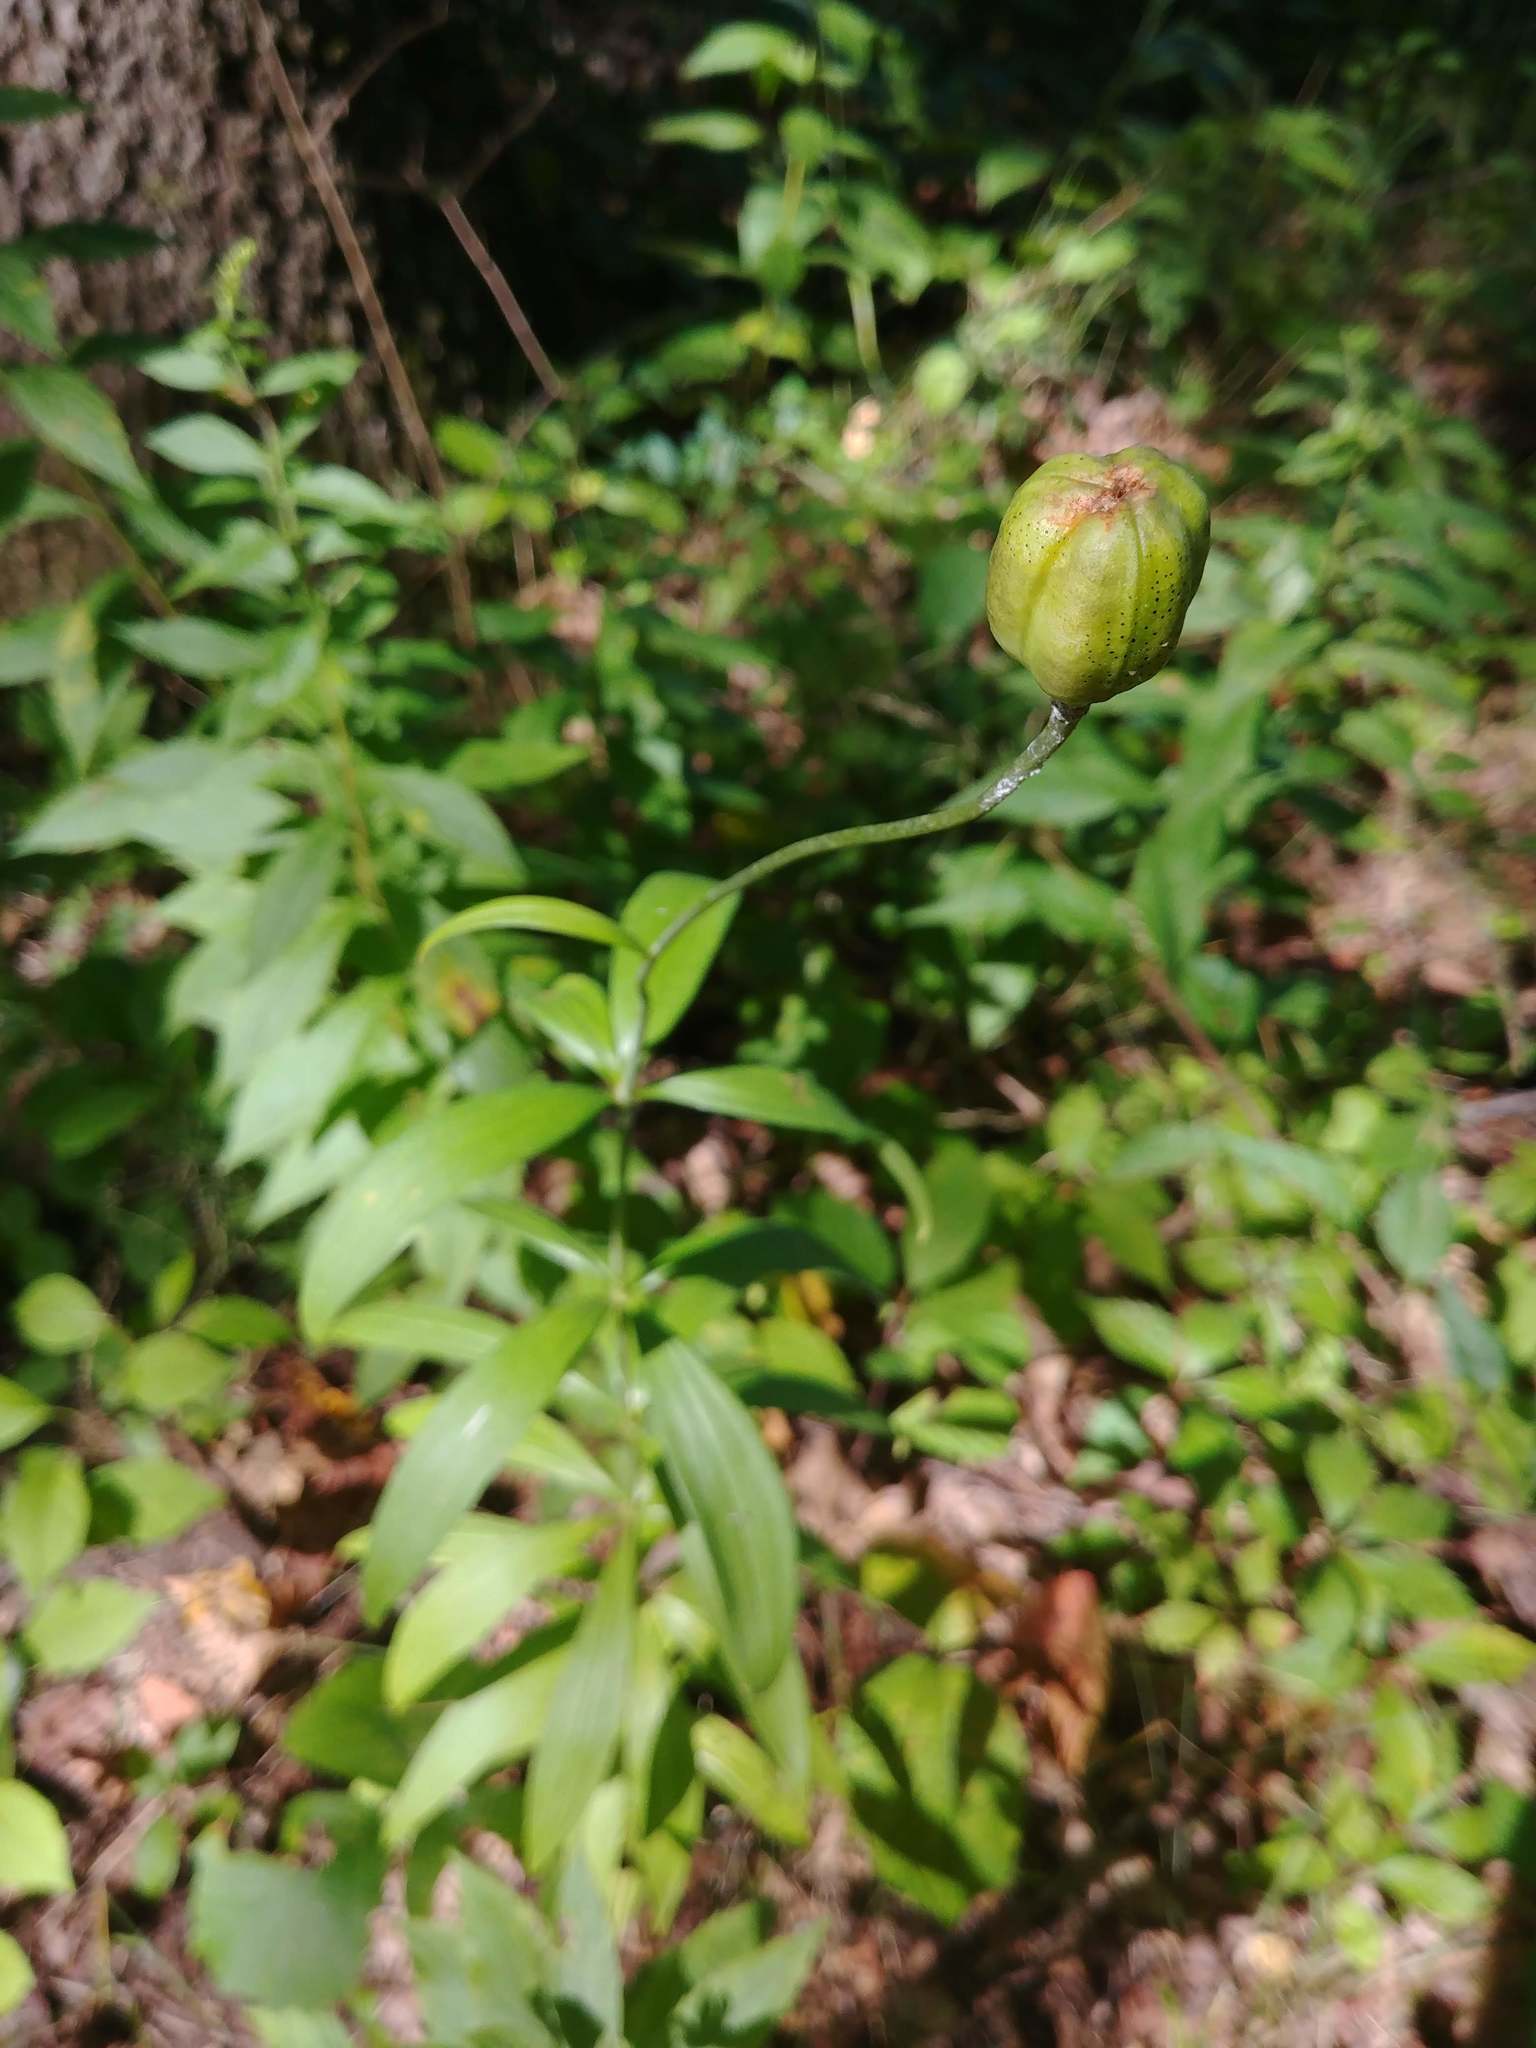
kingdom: Plantae
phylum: Tracheophyta
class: Liliopsida
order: Liliales
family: Liliaceae
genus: Lilium
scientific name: Lilium
